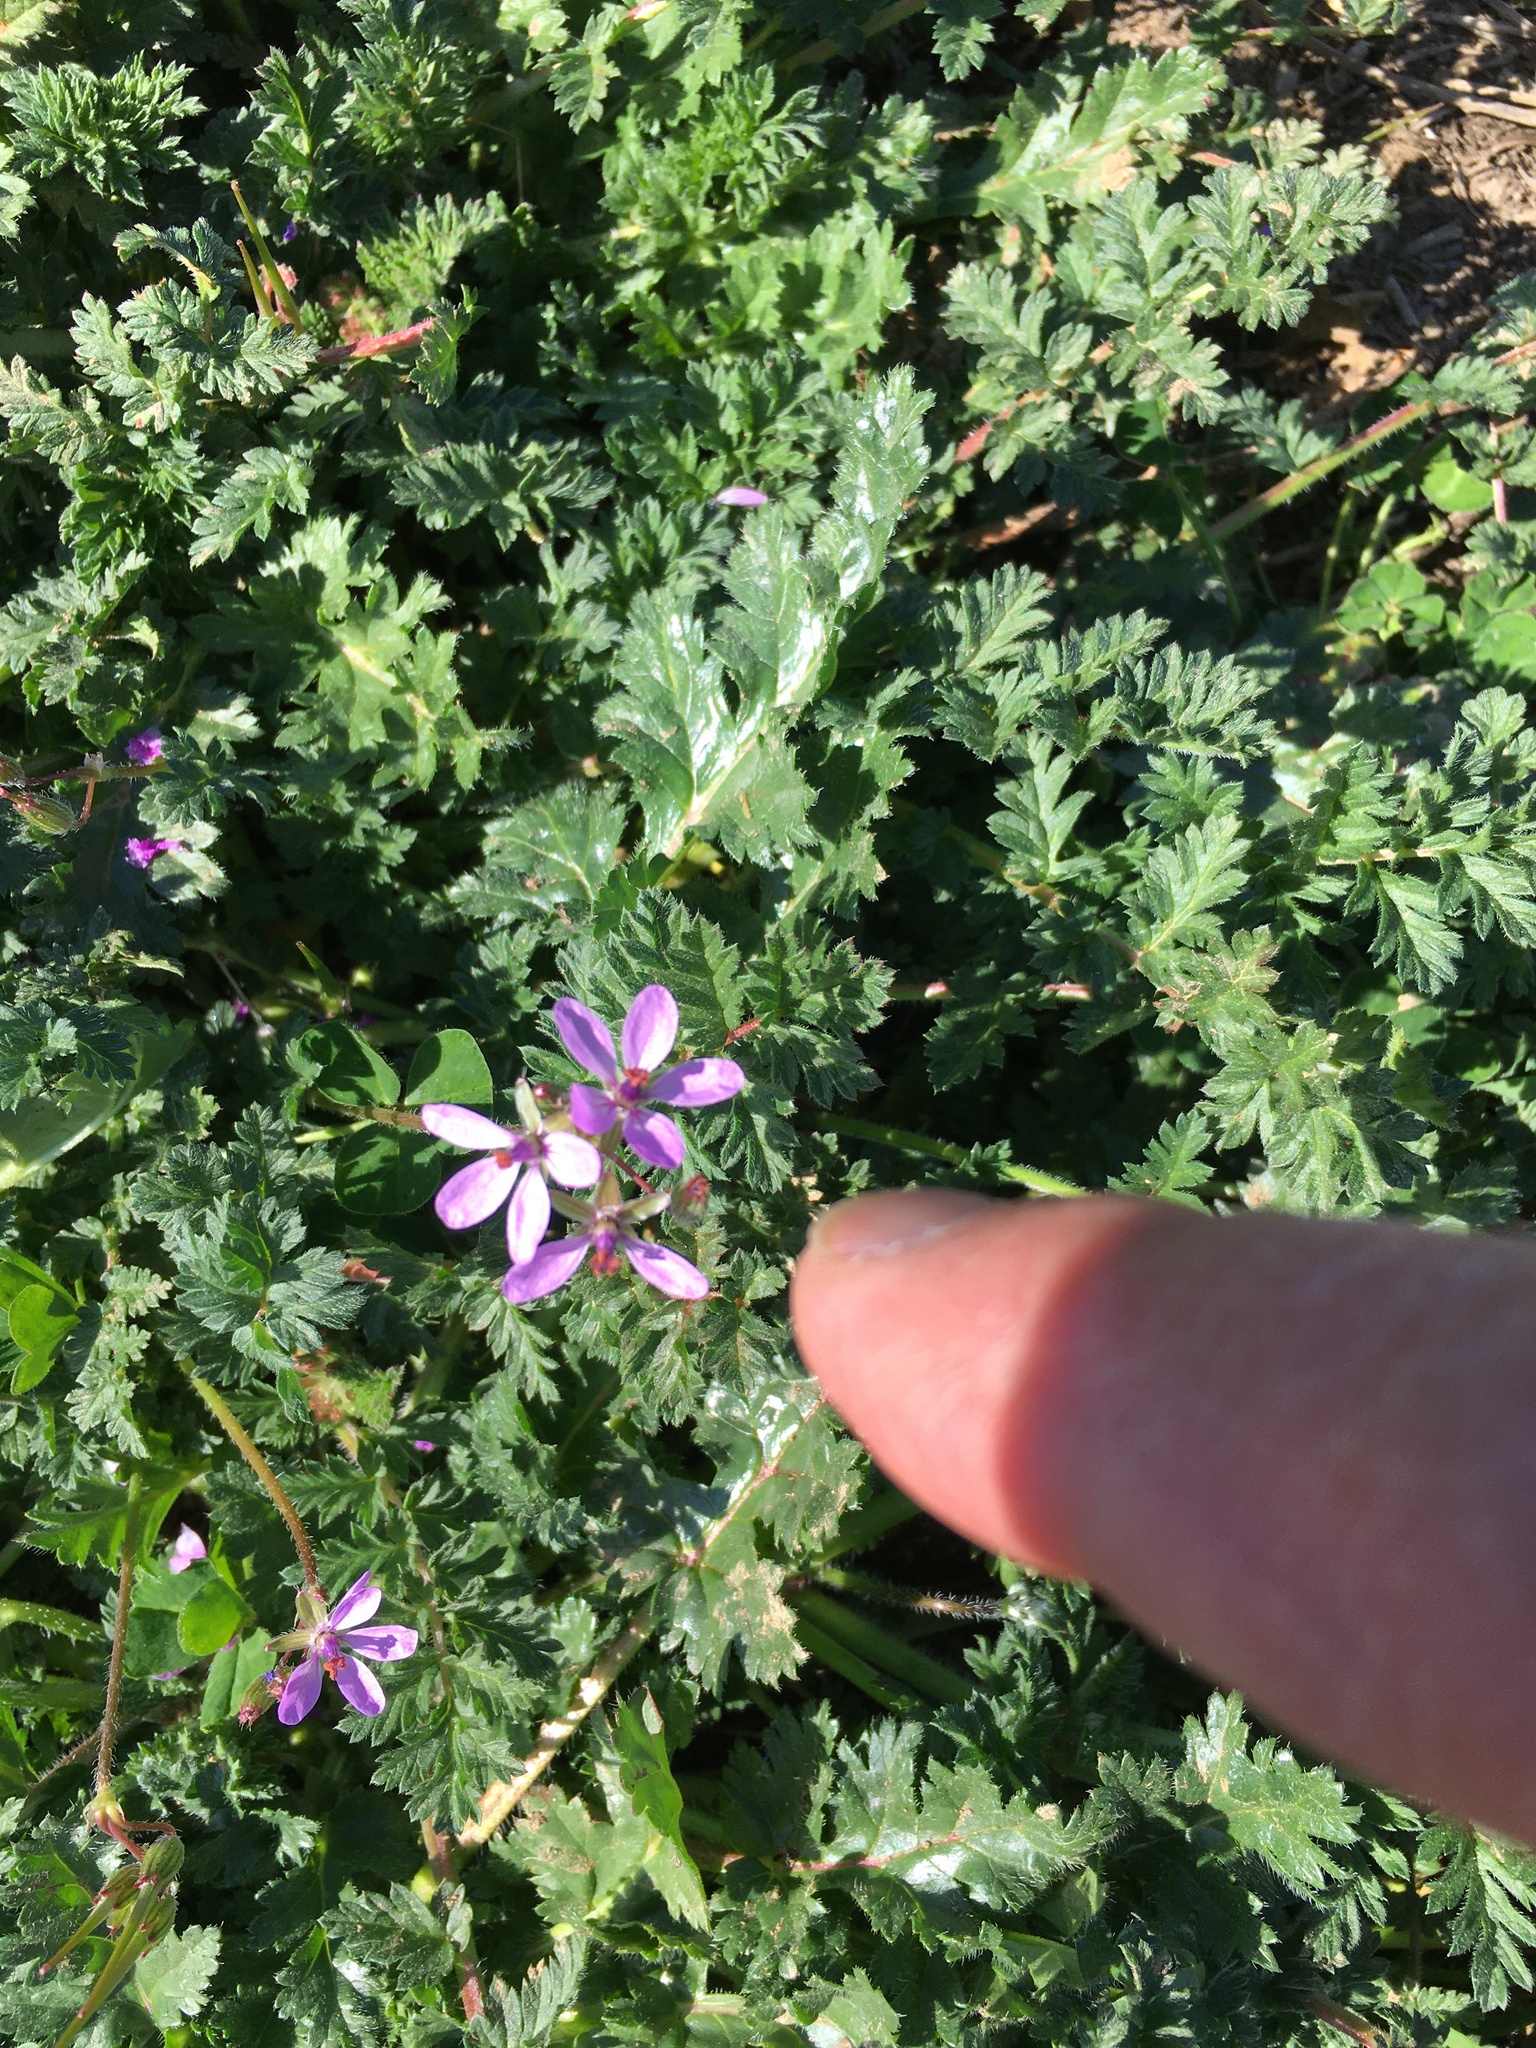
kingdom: Plantae
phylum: Tracheophyta
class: Magnoliopsida
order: Geraniales
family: Geraniaceae
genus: Erodium
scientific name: Erodium cicutarium
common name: Common stork's-bill
